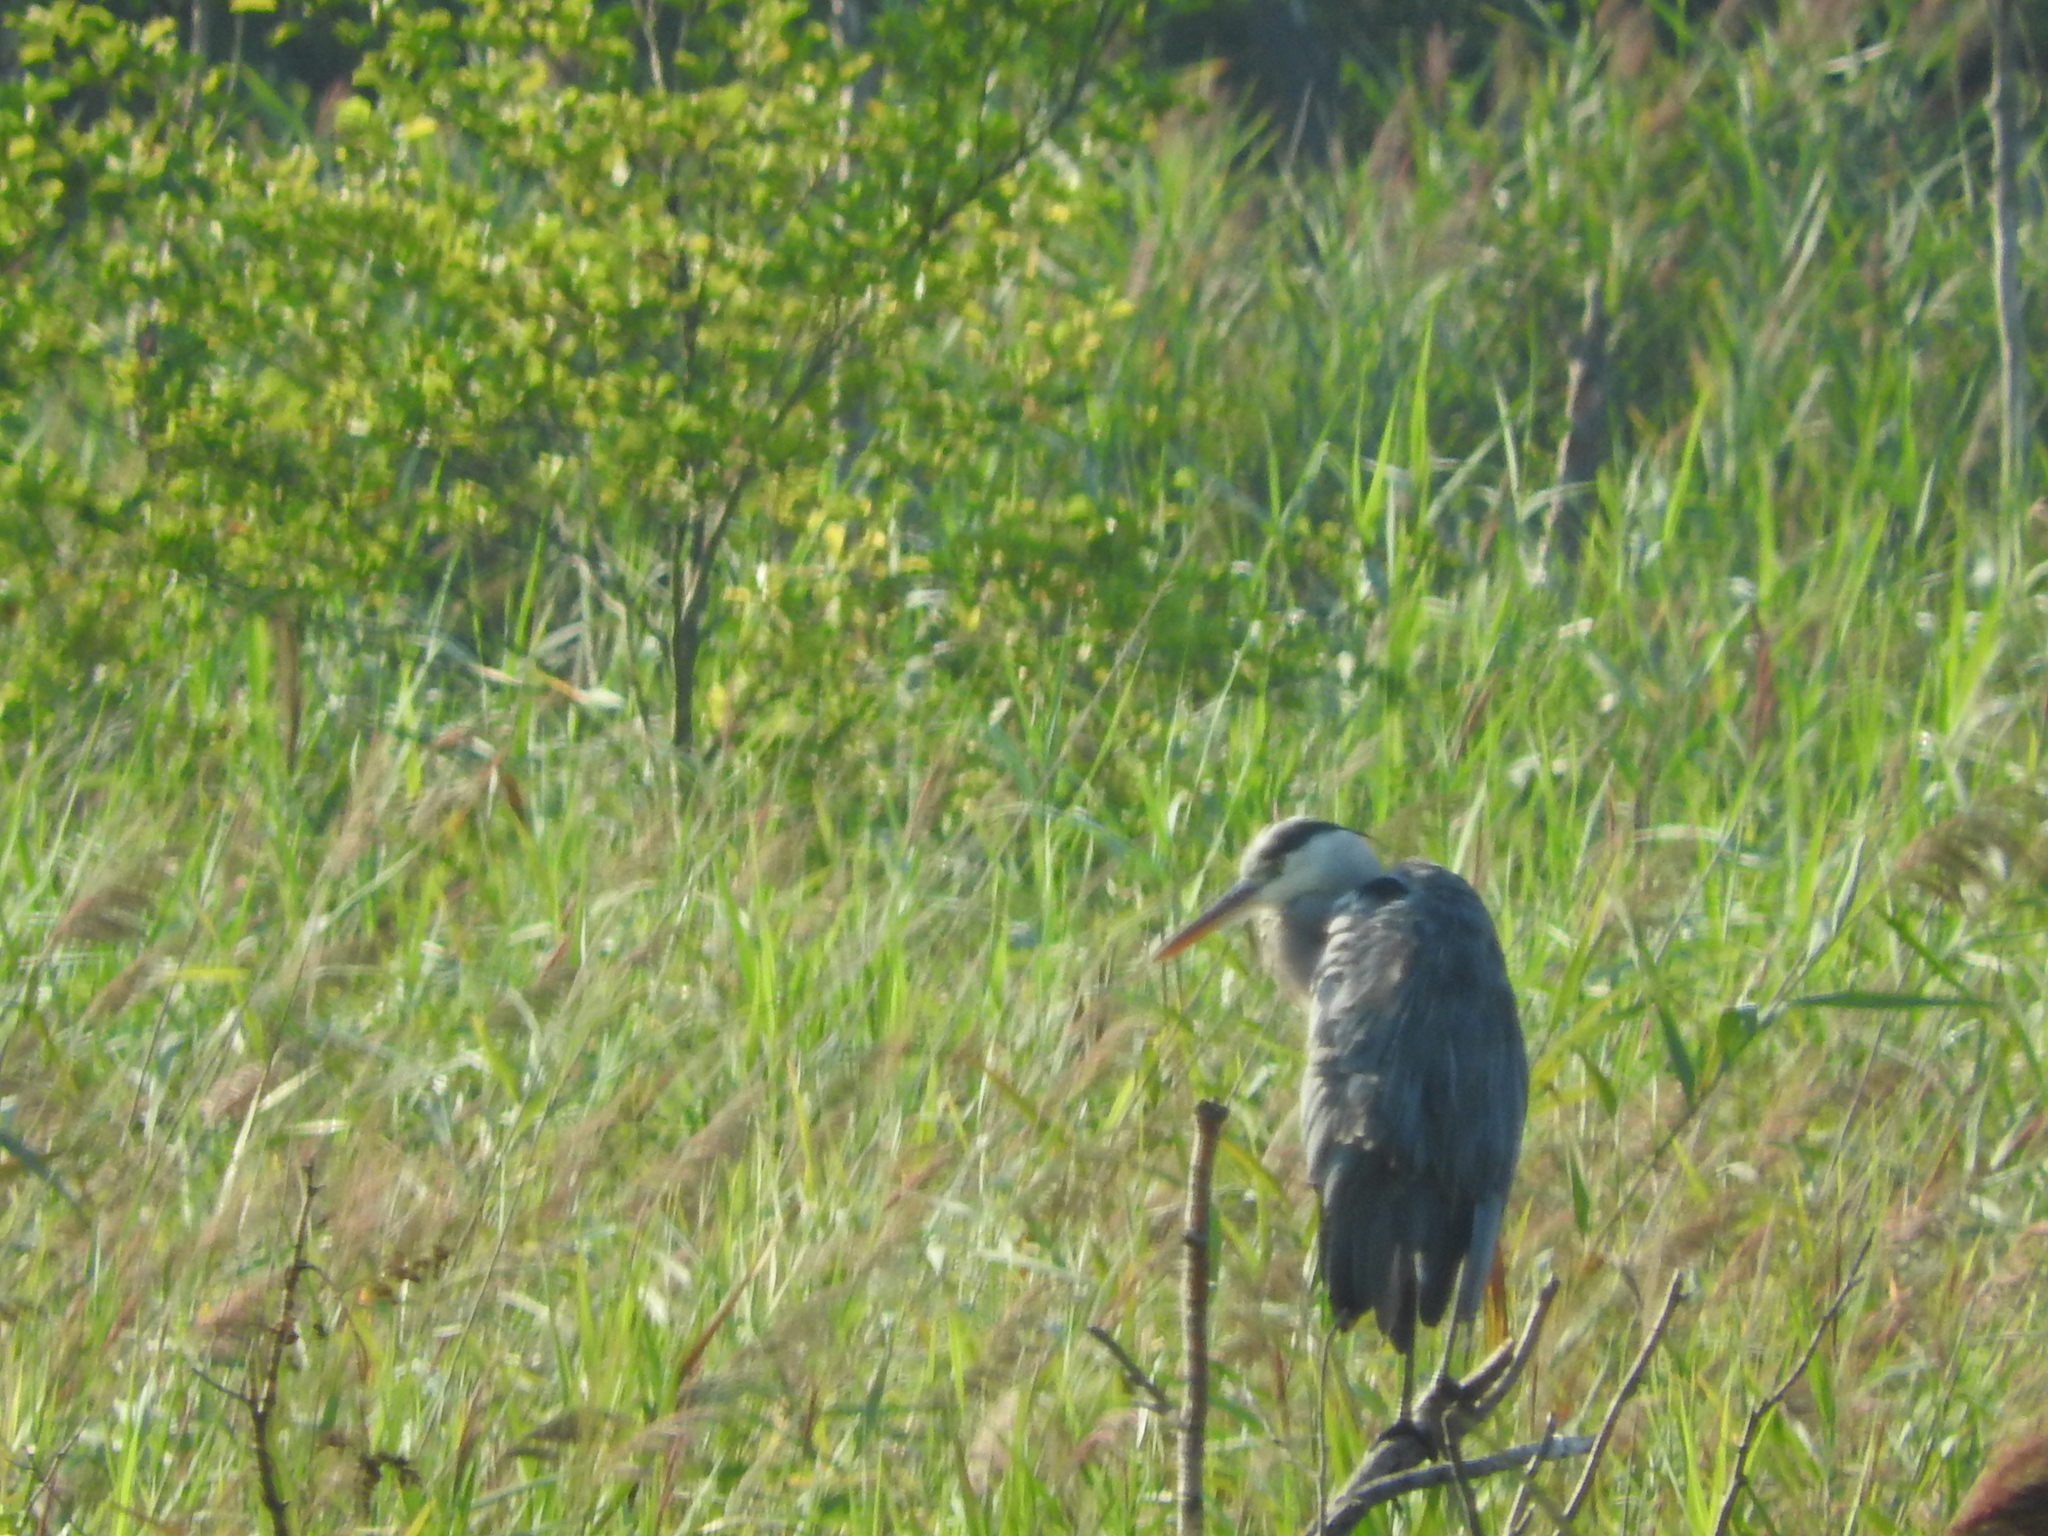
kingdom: Animalia
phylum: Chordata
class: Aves
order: Pelecaniformes
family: Ardeidae
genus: Ardea
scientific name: Ardea cinerea
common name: Grey heron
